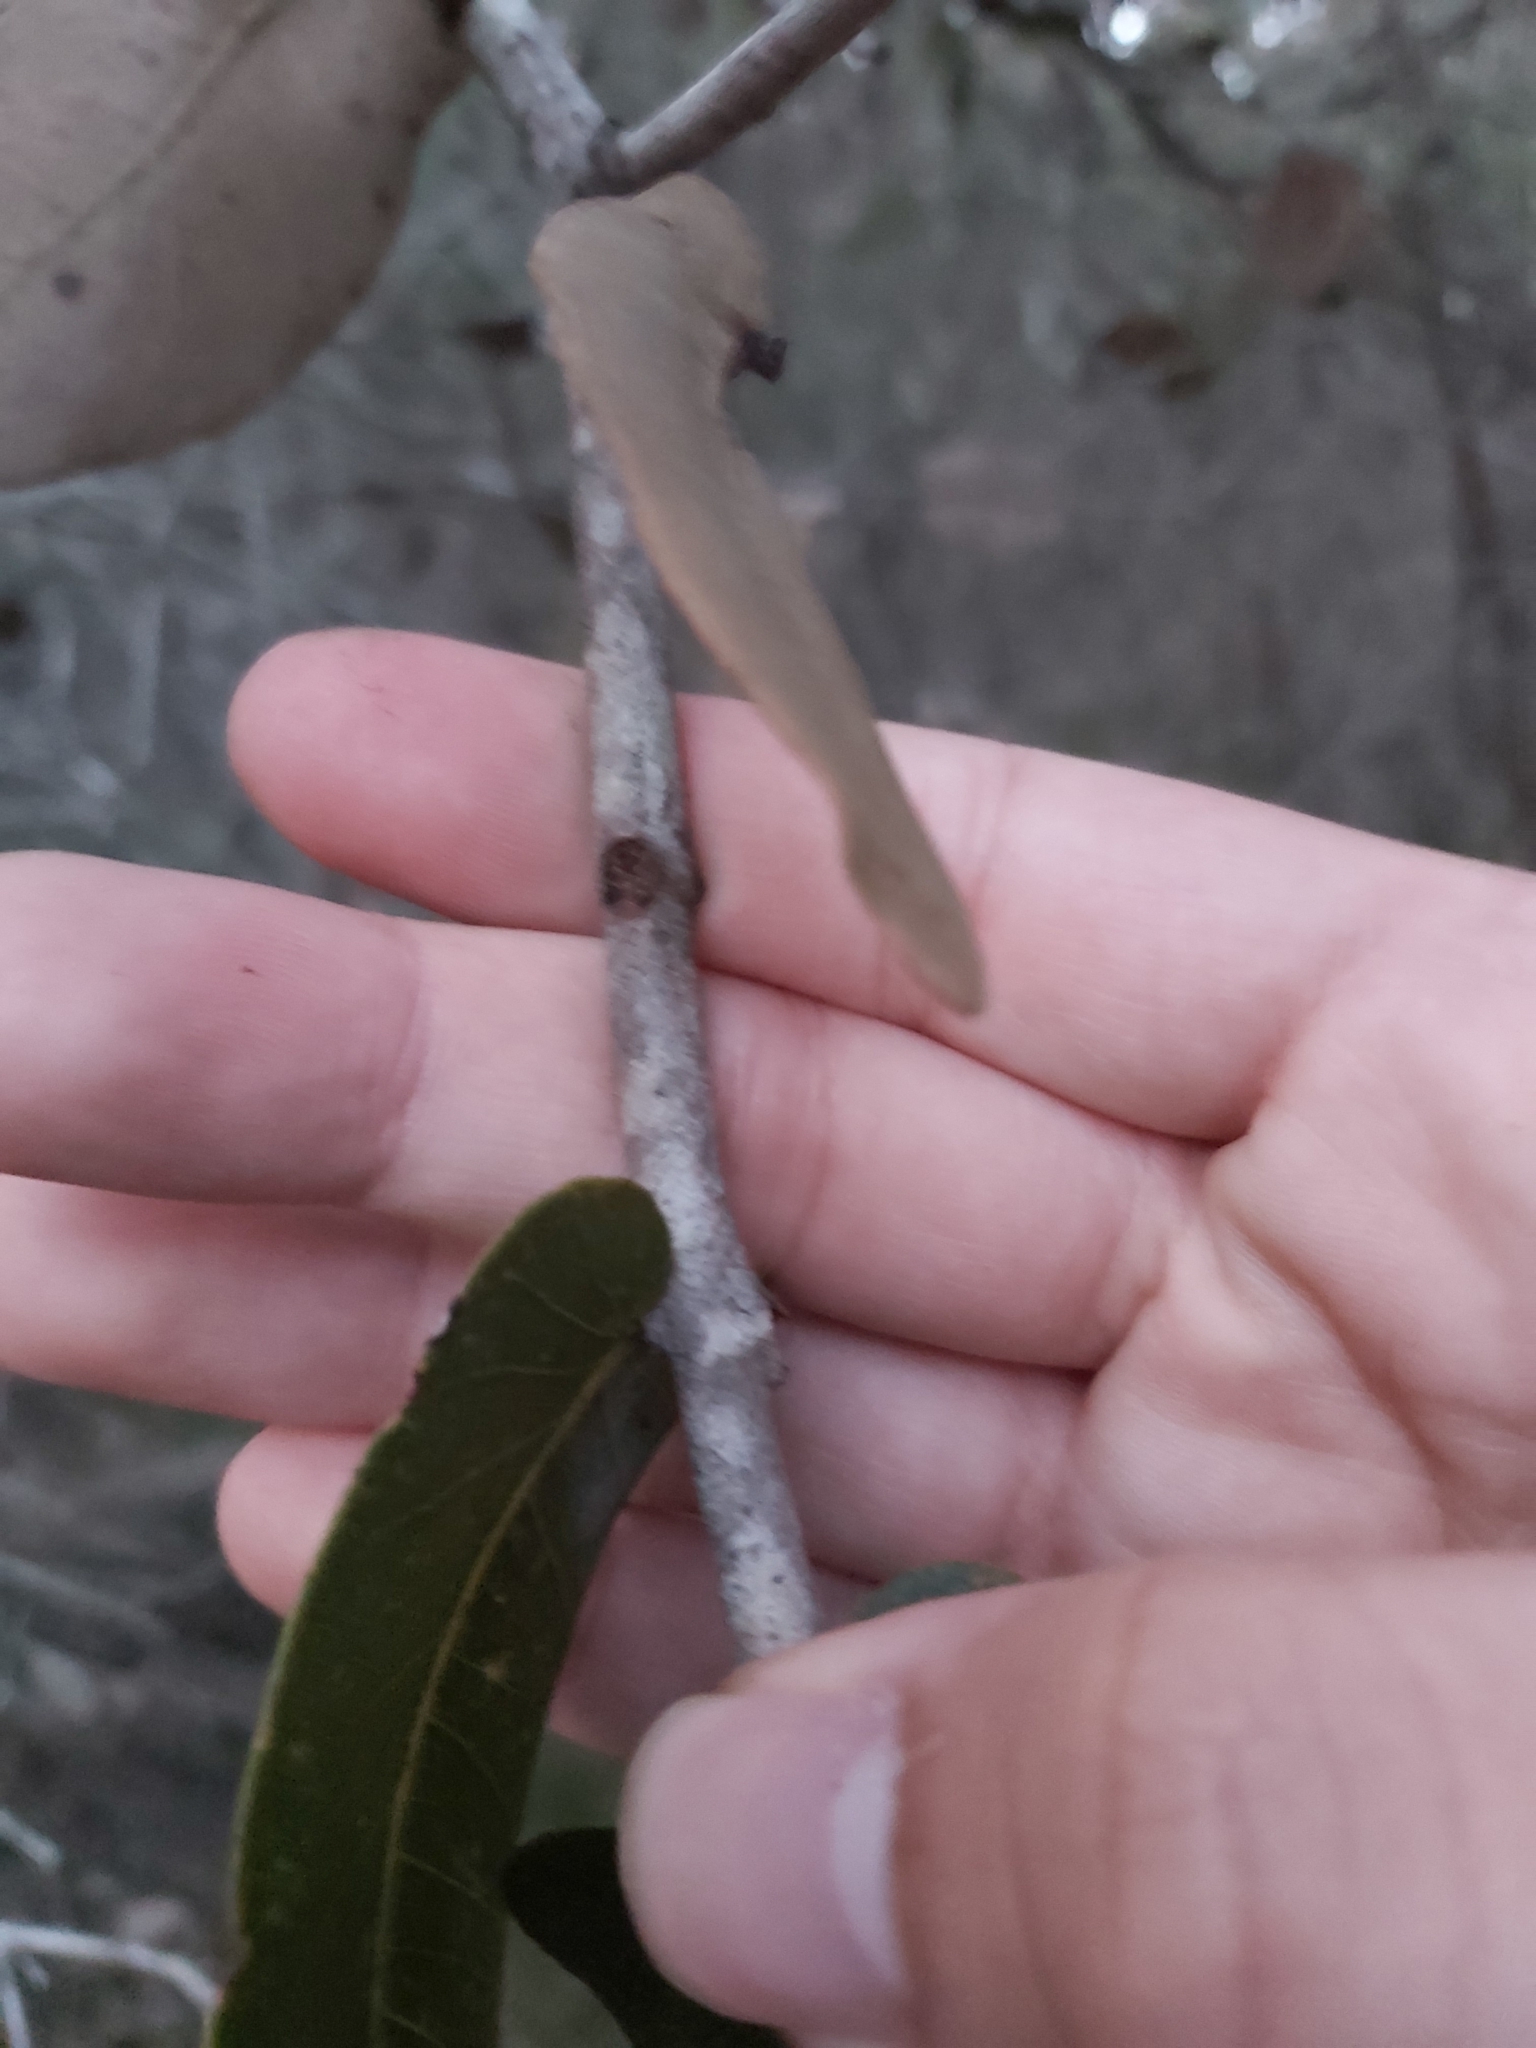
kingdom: Plantae
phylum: Tracheophyta
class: Magnoliopsida
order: Myrtales
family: Myrtaceae
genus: Angophora
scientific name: Angophora hispida
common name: Dwarf-apple
